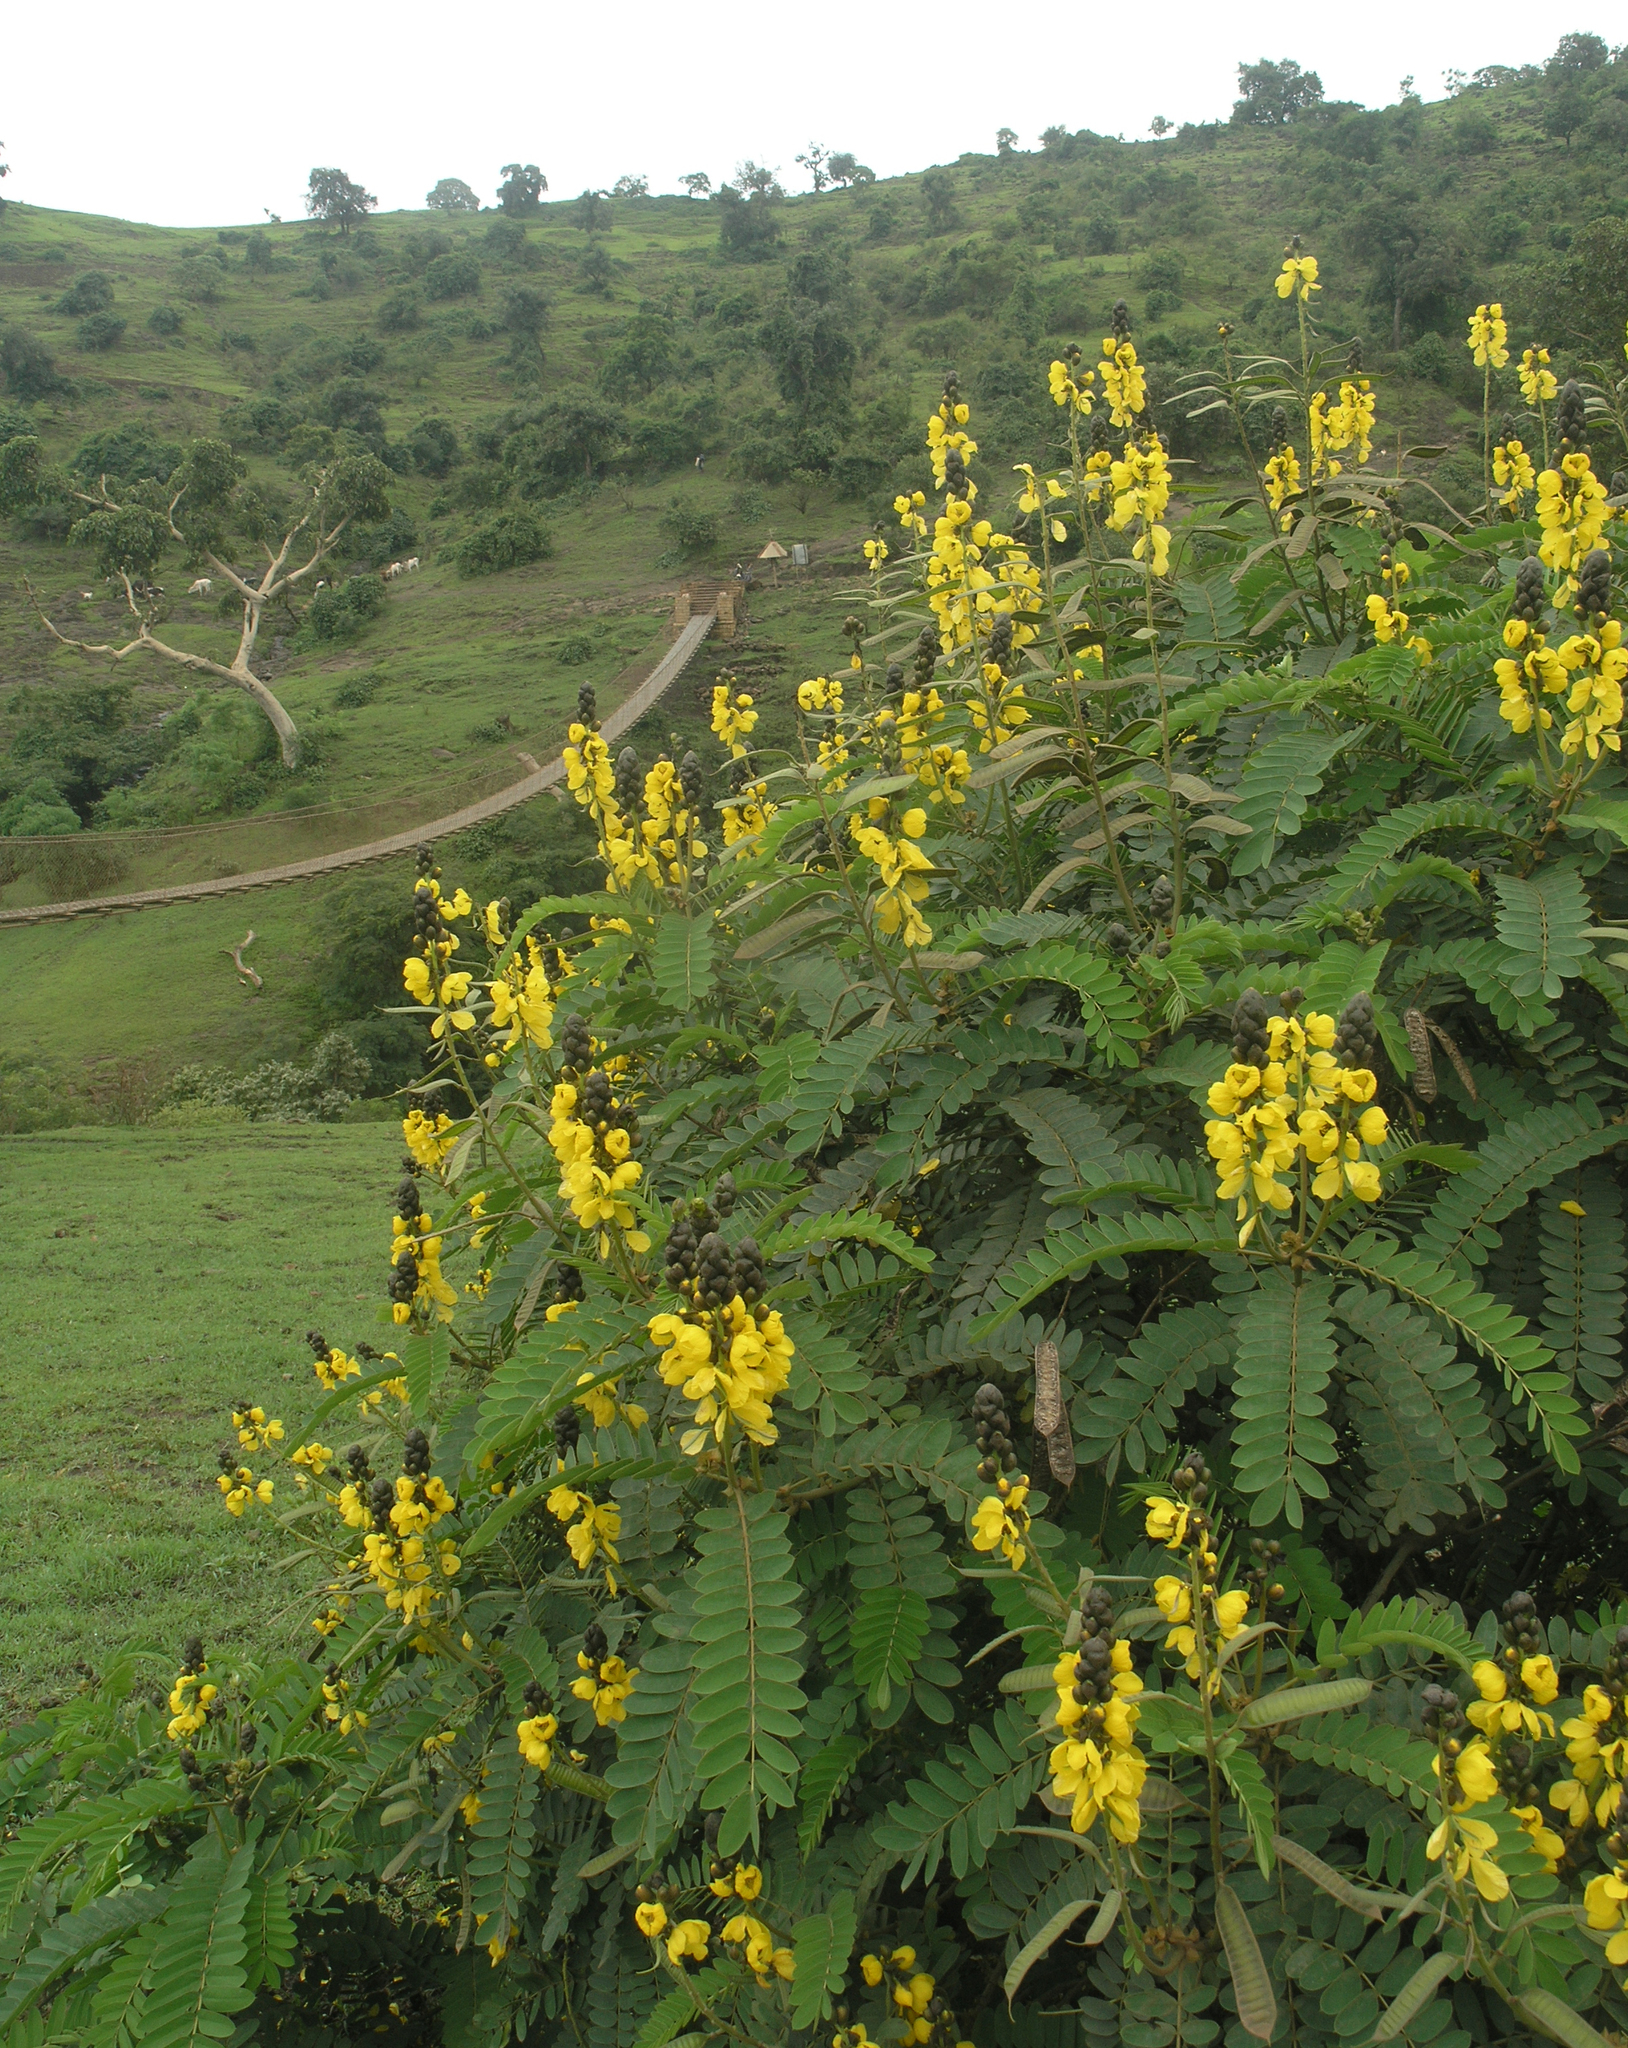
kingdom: Plantae
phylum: Tracheophyta
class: Magnoliopsida
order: Fabales
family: Fabaceae
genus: Senna
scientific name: Senna didymobotrya
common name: African senna
